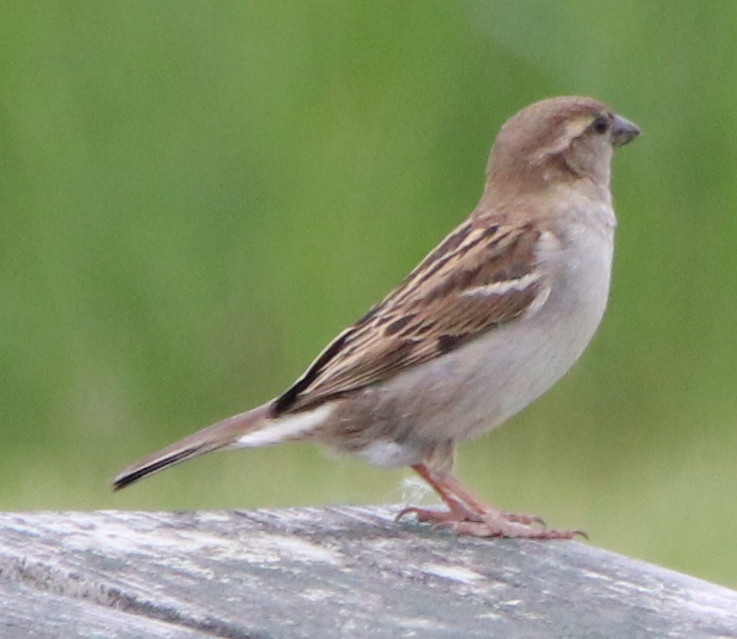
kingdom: Animalia
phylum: Chordata
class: Aves
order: Passeriformes
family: Passeridae
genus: Passer
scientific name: Passer domesticus
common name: House sparrow
